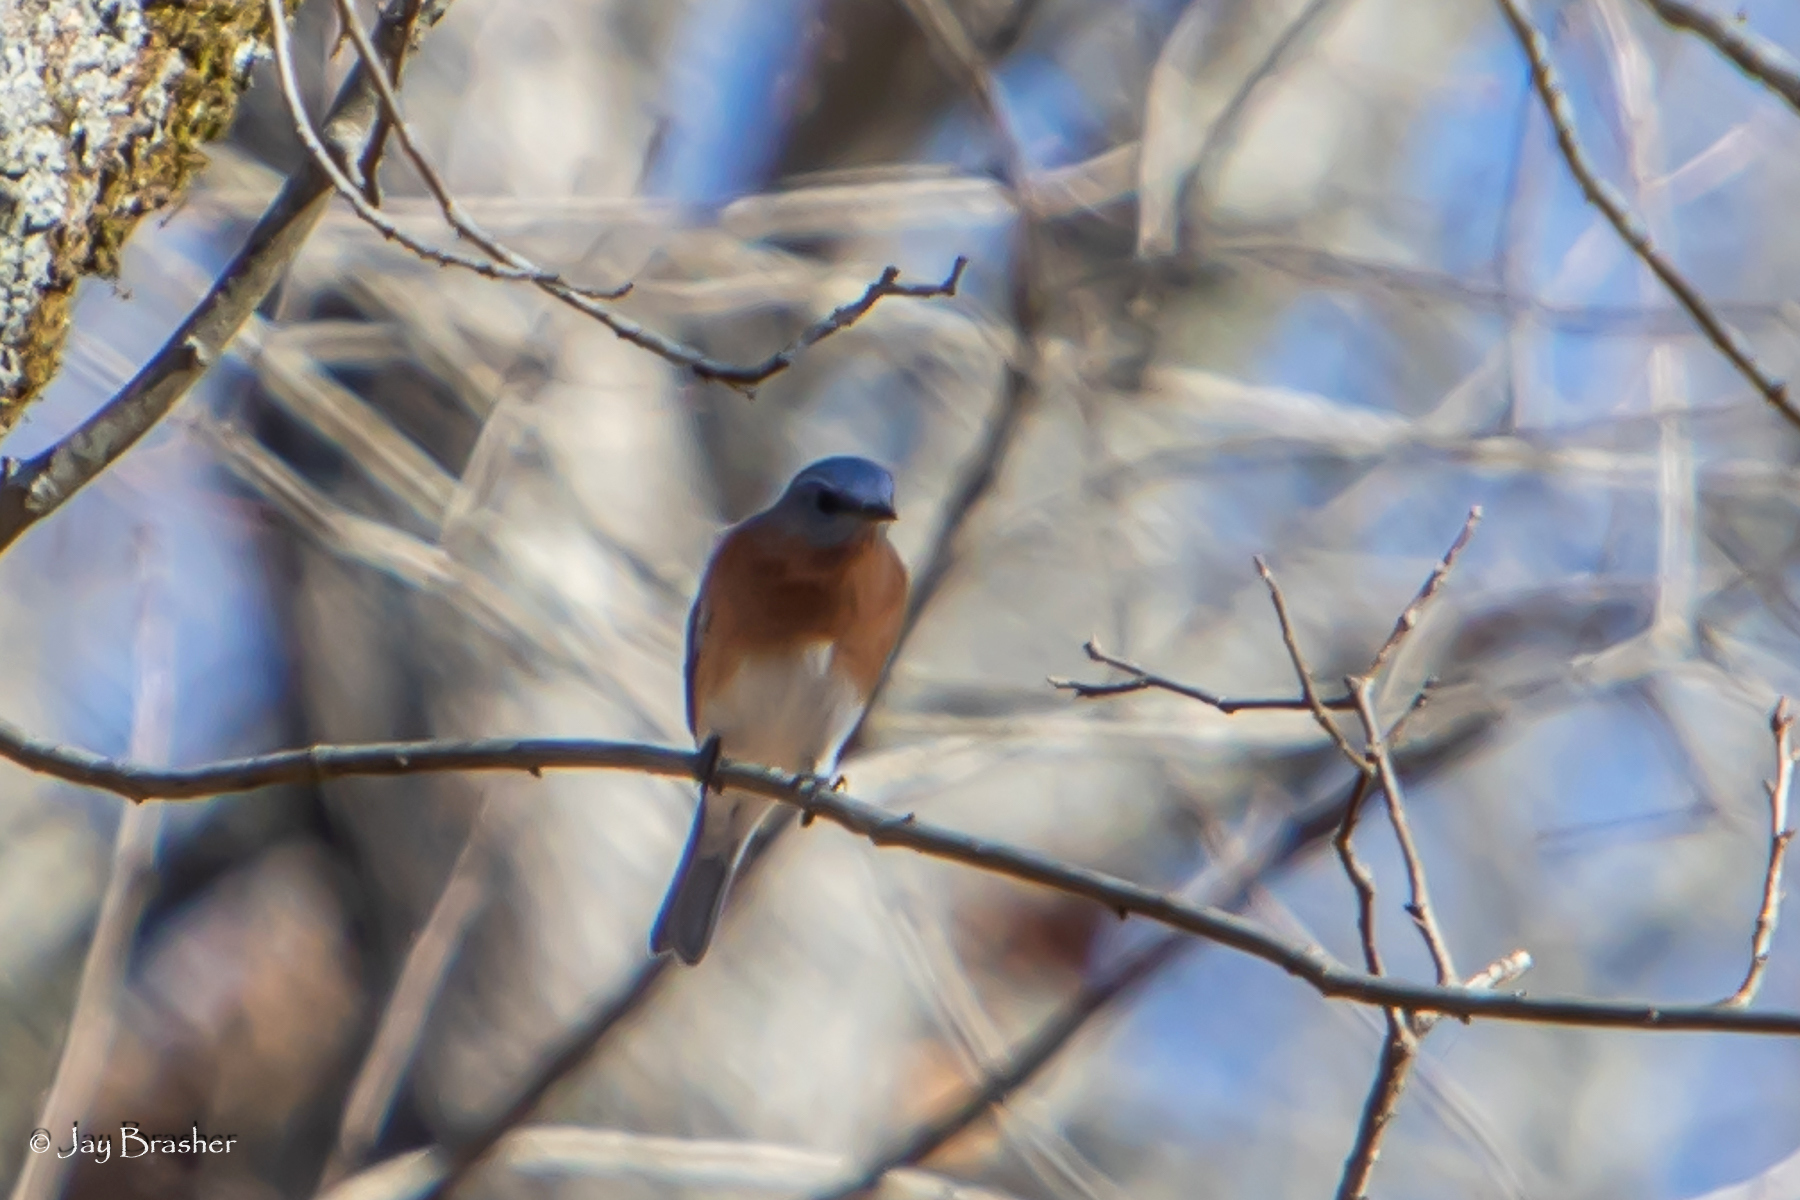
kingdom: Animalia
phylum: Chordata
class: Aves
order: Passeriformes
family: Turdidae
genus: Sialia
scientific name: Sialia sialis
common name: Eastern bluebird
